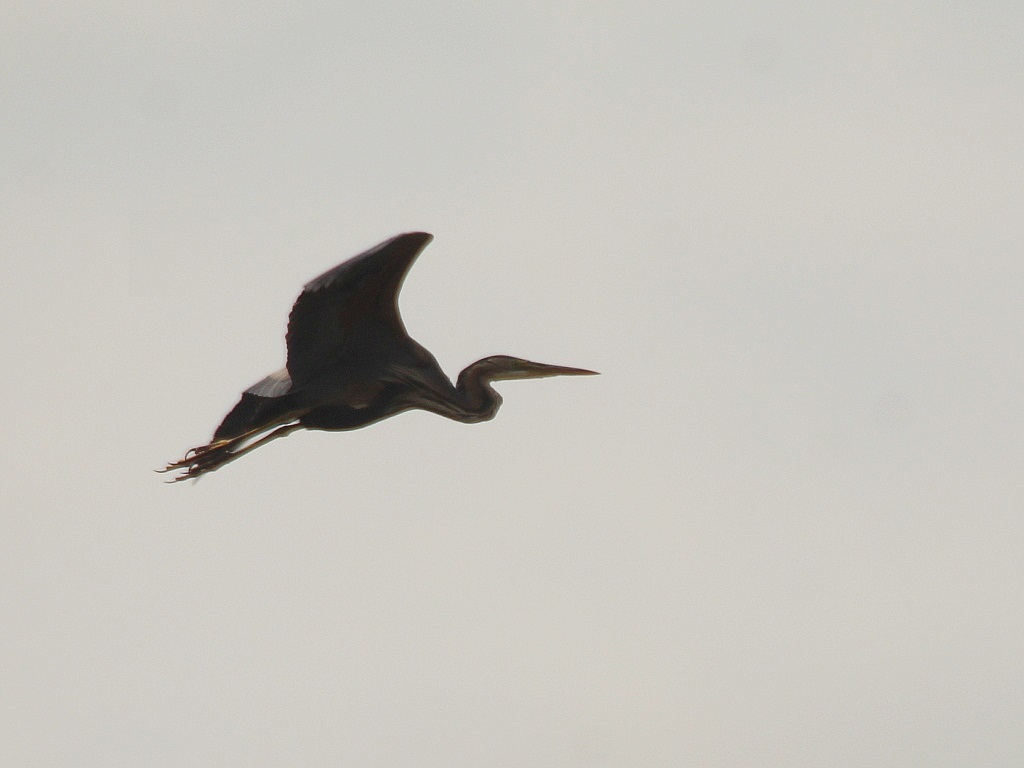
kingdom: Animalia
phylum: Chordata
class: Aves
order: Pelecaniformes
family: Ardeidae
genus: Ardea
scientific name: Ardea purpurea
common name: Purple heron
